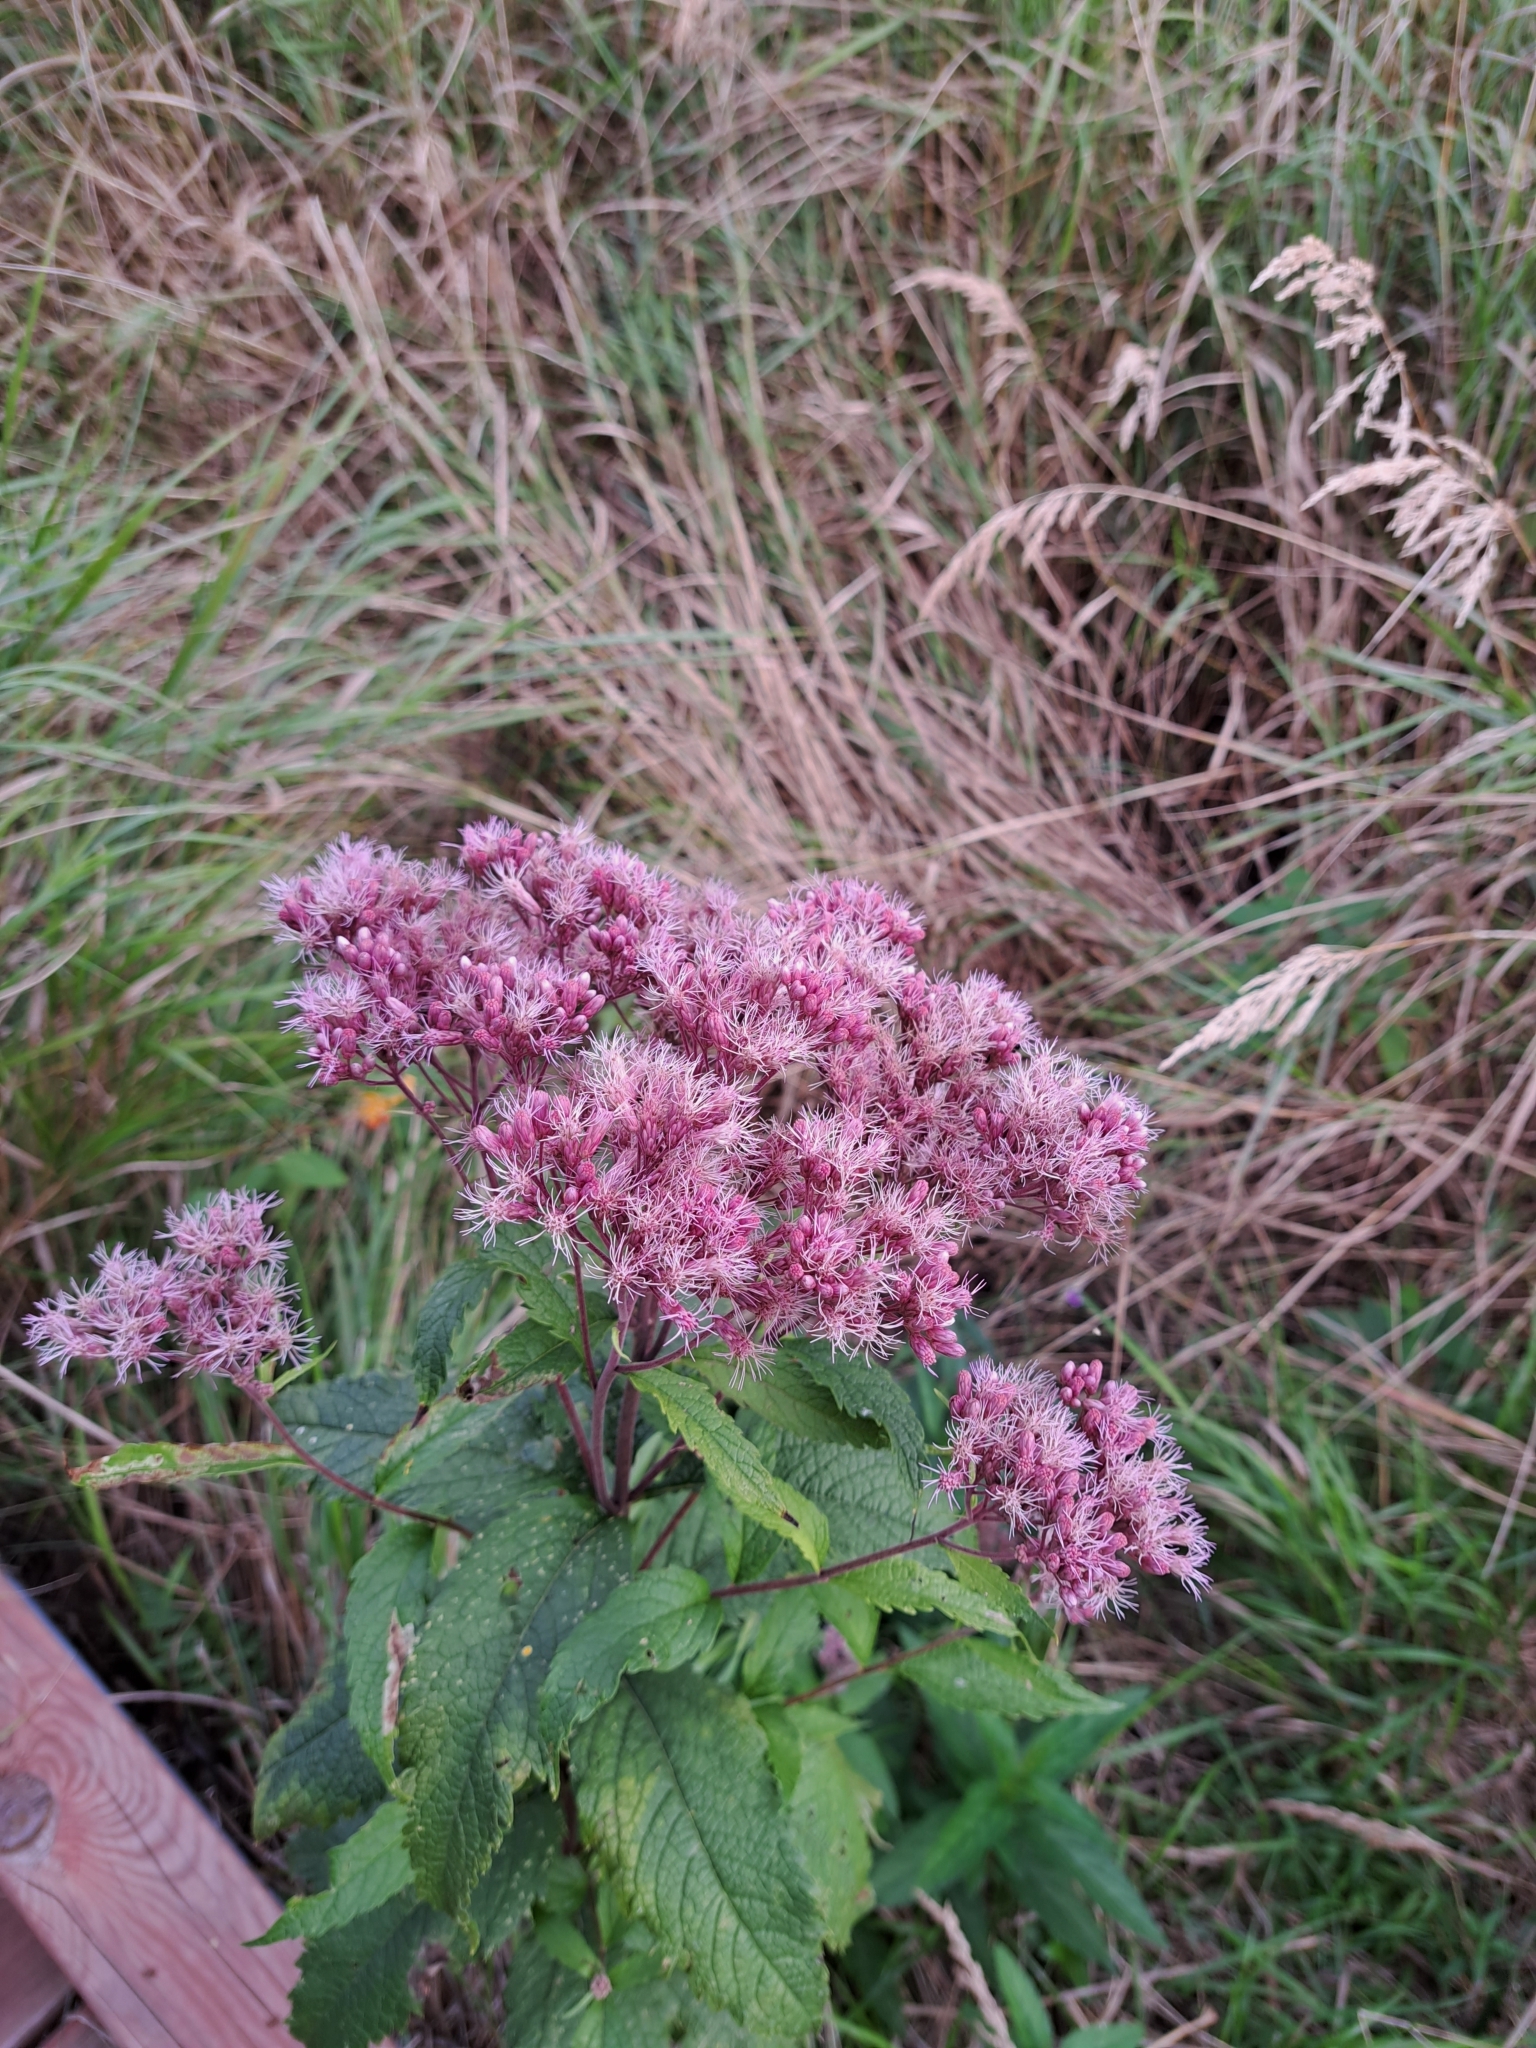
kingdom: Plantae
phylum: Tracheophyta
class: Magnoliopsida
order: Asterales
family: Asteraceae
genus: Eutrochium
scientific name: Eutrochium maculatum
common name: Spotted joe pye weed
